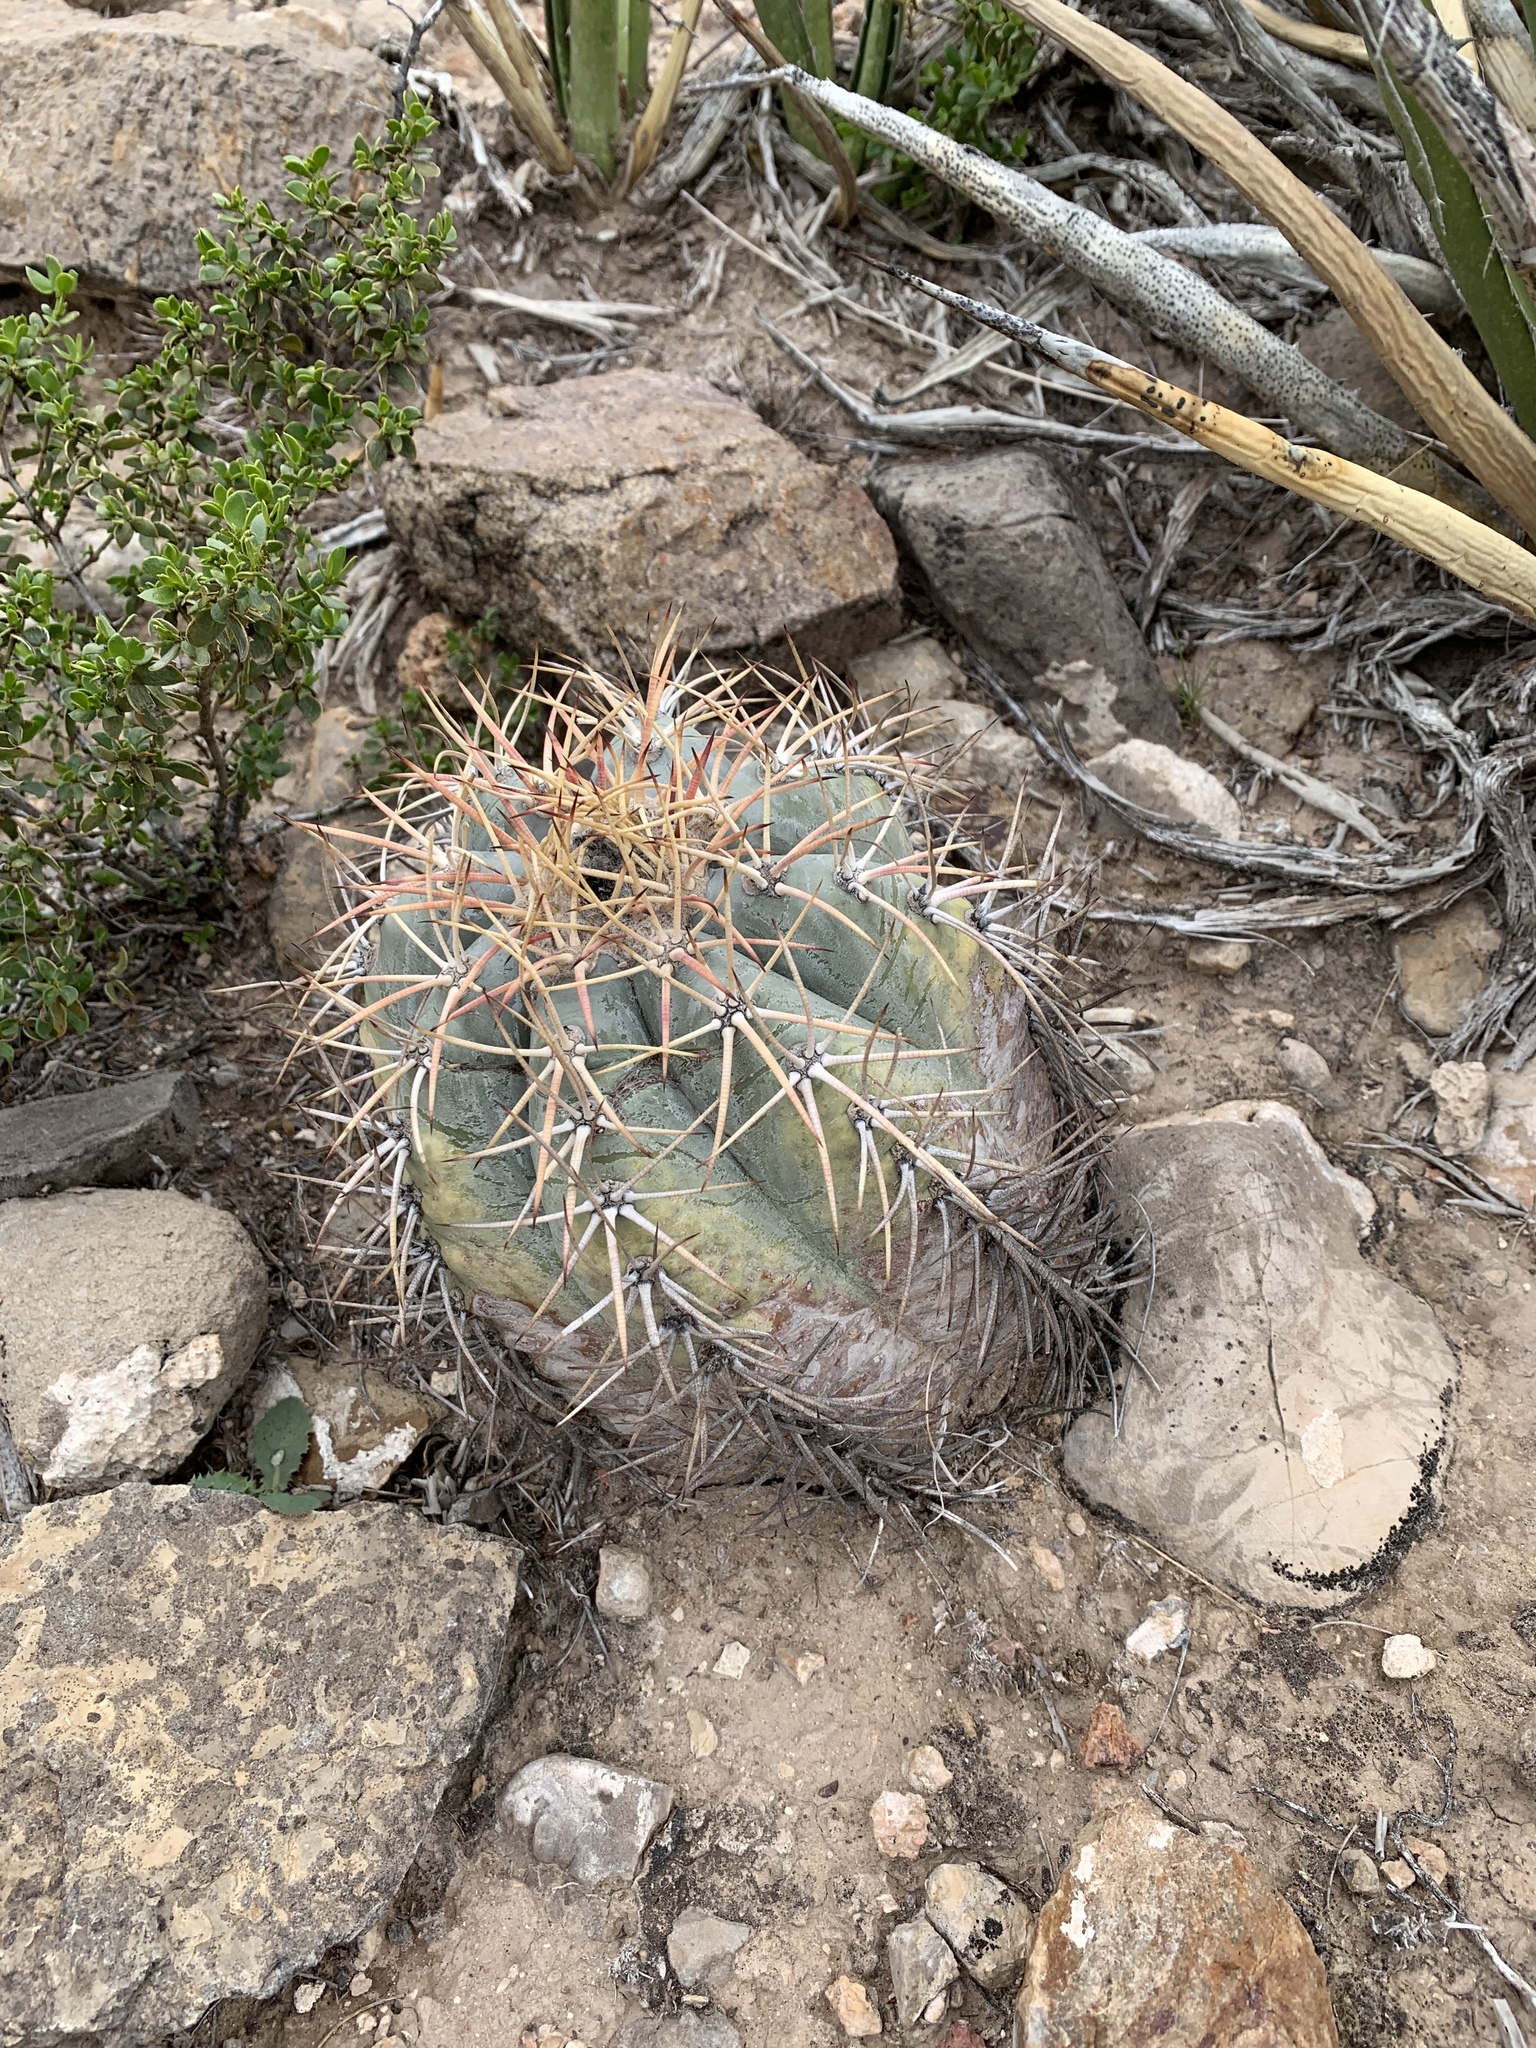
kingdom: Plantae
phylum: Tracheophyta
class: Magnoliopsida
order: Caryophyllales
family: Cactaceae
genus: Echinocactus
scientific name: Echinocactus horizonthalonius
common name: Devilshead
